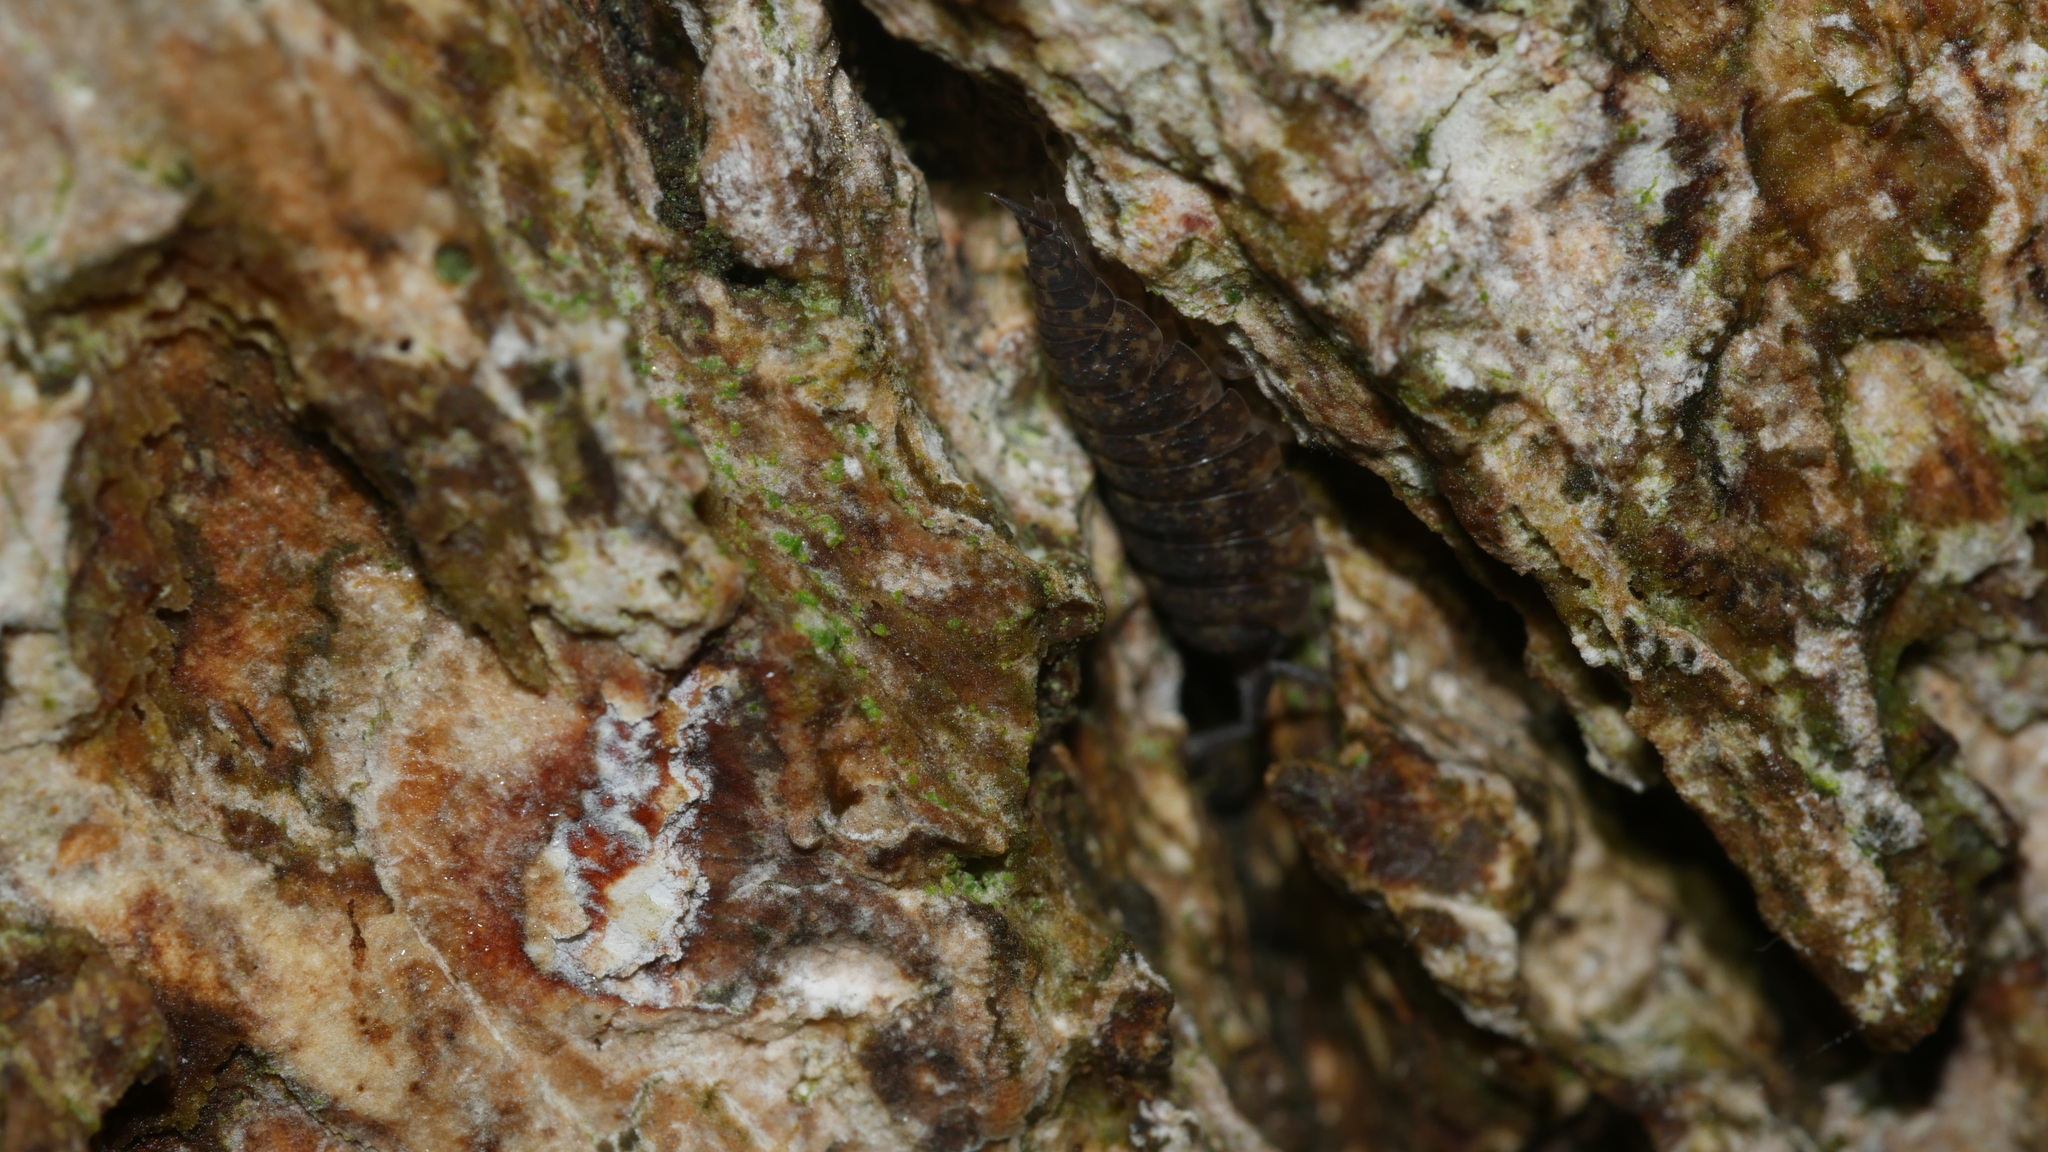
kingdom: Animalia
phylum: Arthropoda
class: Malacostraca
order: Isopoda
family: Porcellionidae
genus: Porcellio
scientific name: Porcellio scaber
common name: Common rough woodlouse
